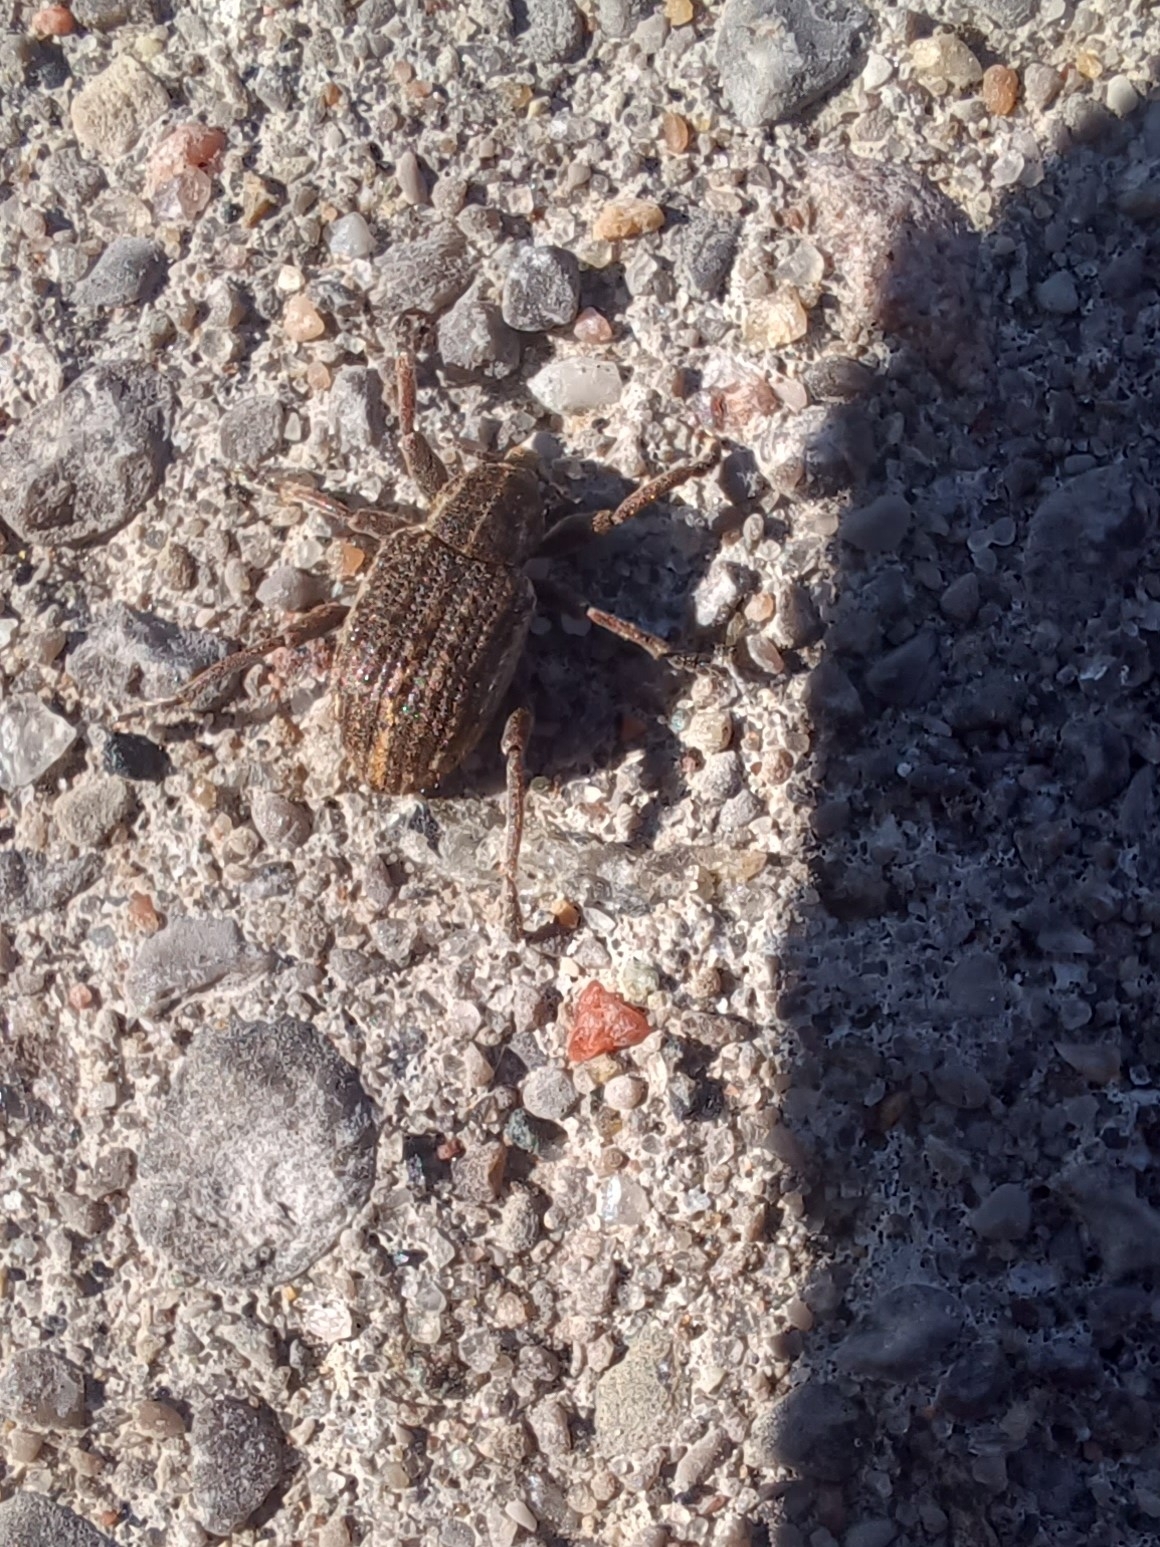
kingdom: Animalia
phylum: Arthropoda
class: Insecta
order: Coleoptera
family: Curculionidae
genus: Brachypera
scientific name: Brachypera zoilus
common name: Clover leaf weevil
